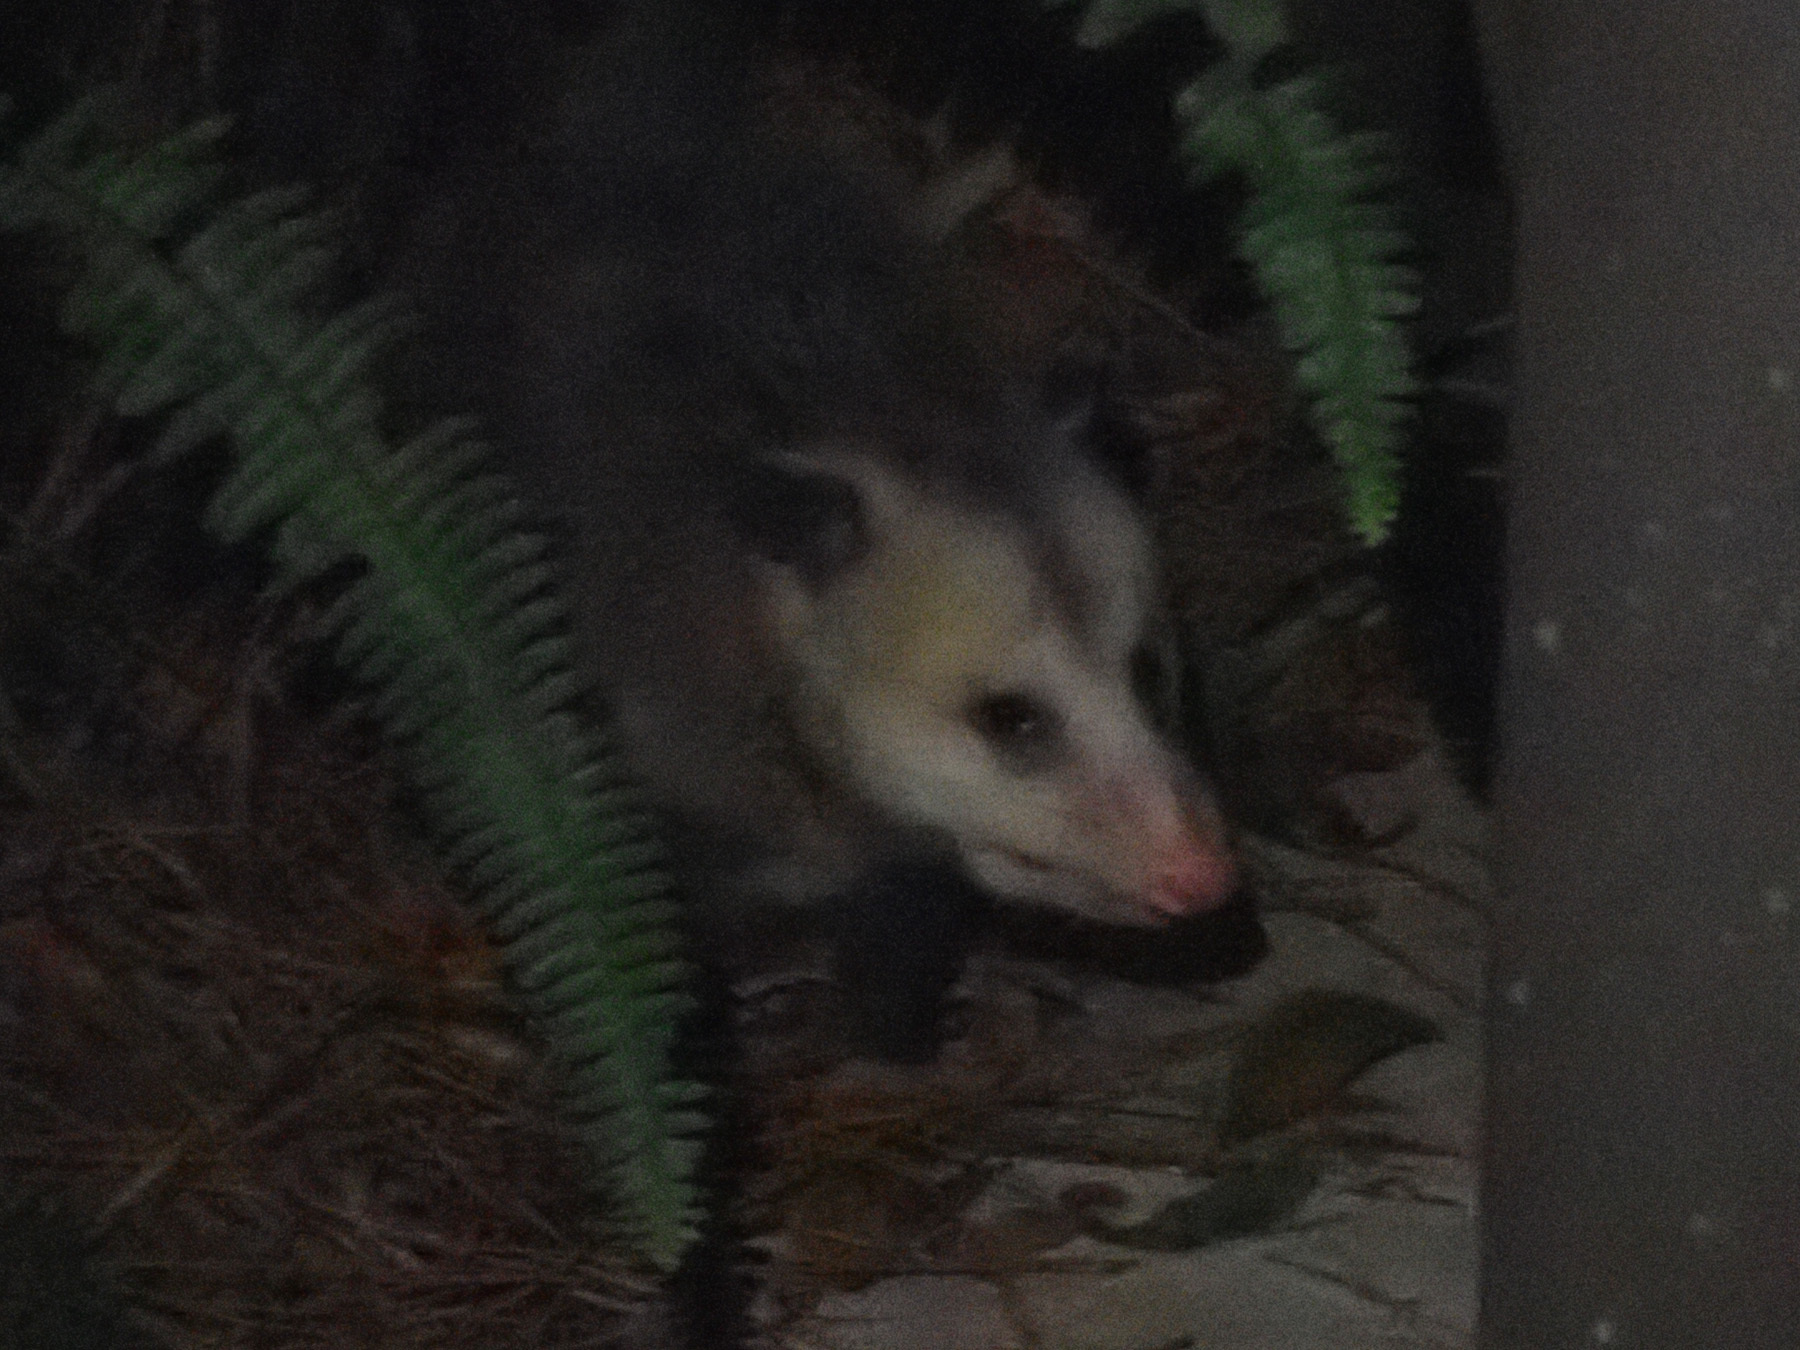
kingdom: Animalia
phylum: Chordata
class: Mammalia
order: Didelphimorphia
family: Didelphidae
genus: Didelphis
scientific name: Didelphis virginiana
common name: Virginia opossum
